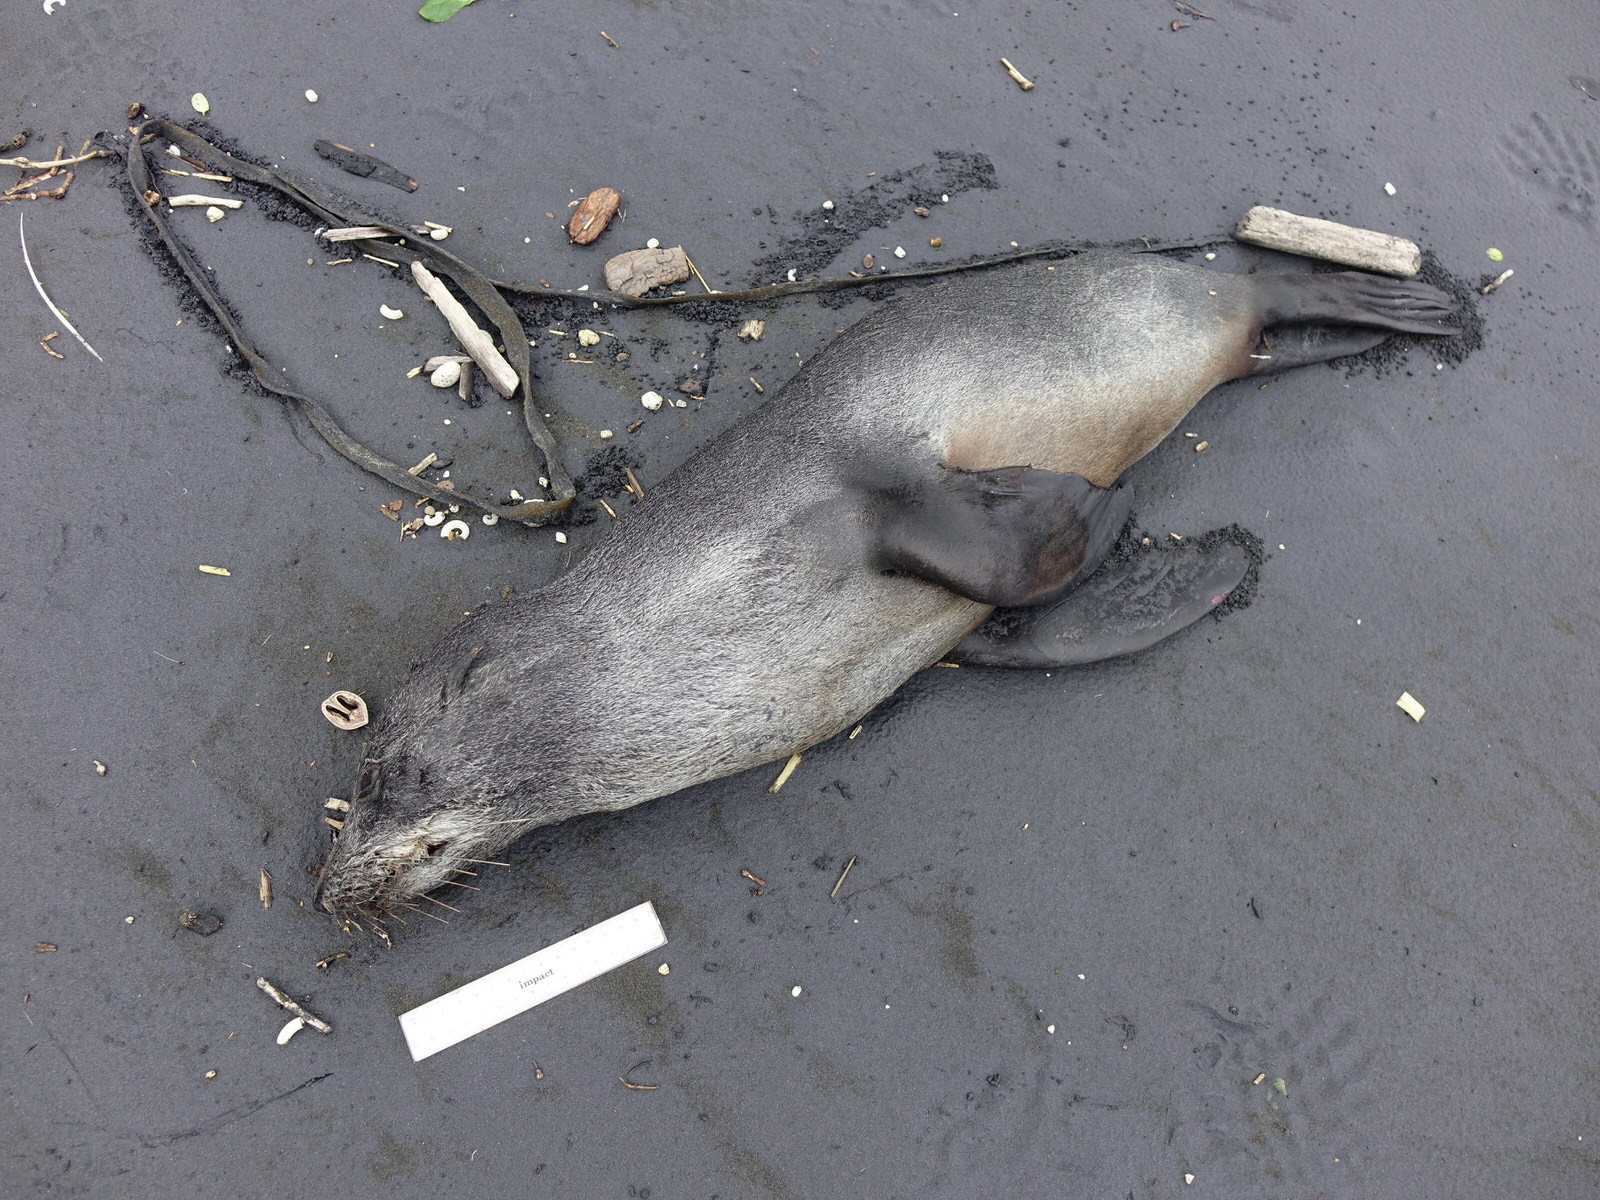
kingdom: Animalia
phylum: Chordata
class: Mammalia
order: Carnivora
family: Otariidae
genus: Arctocephalus
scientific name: Arctocephalus forsteri
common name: New zealand fur seal
